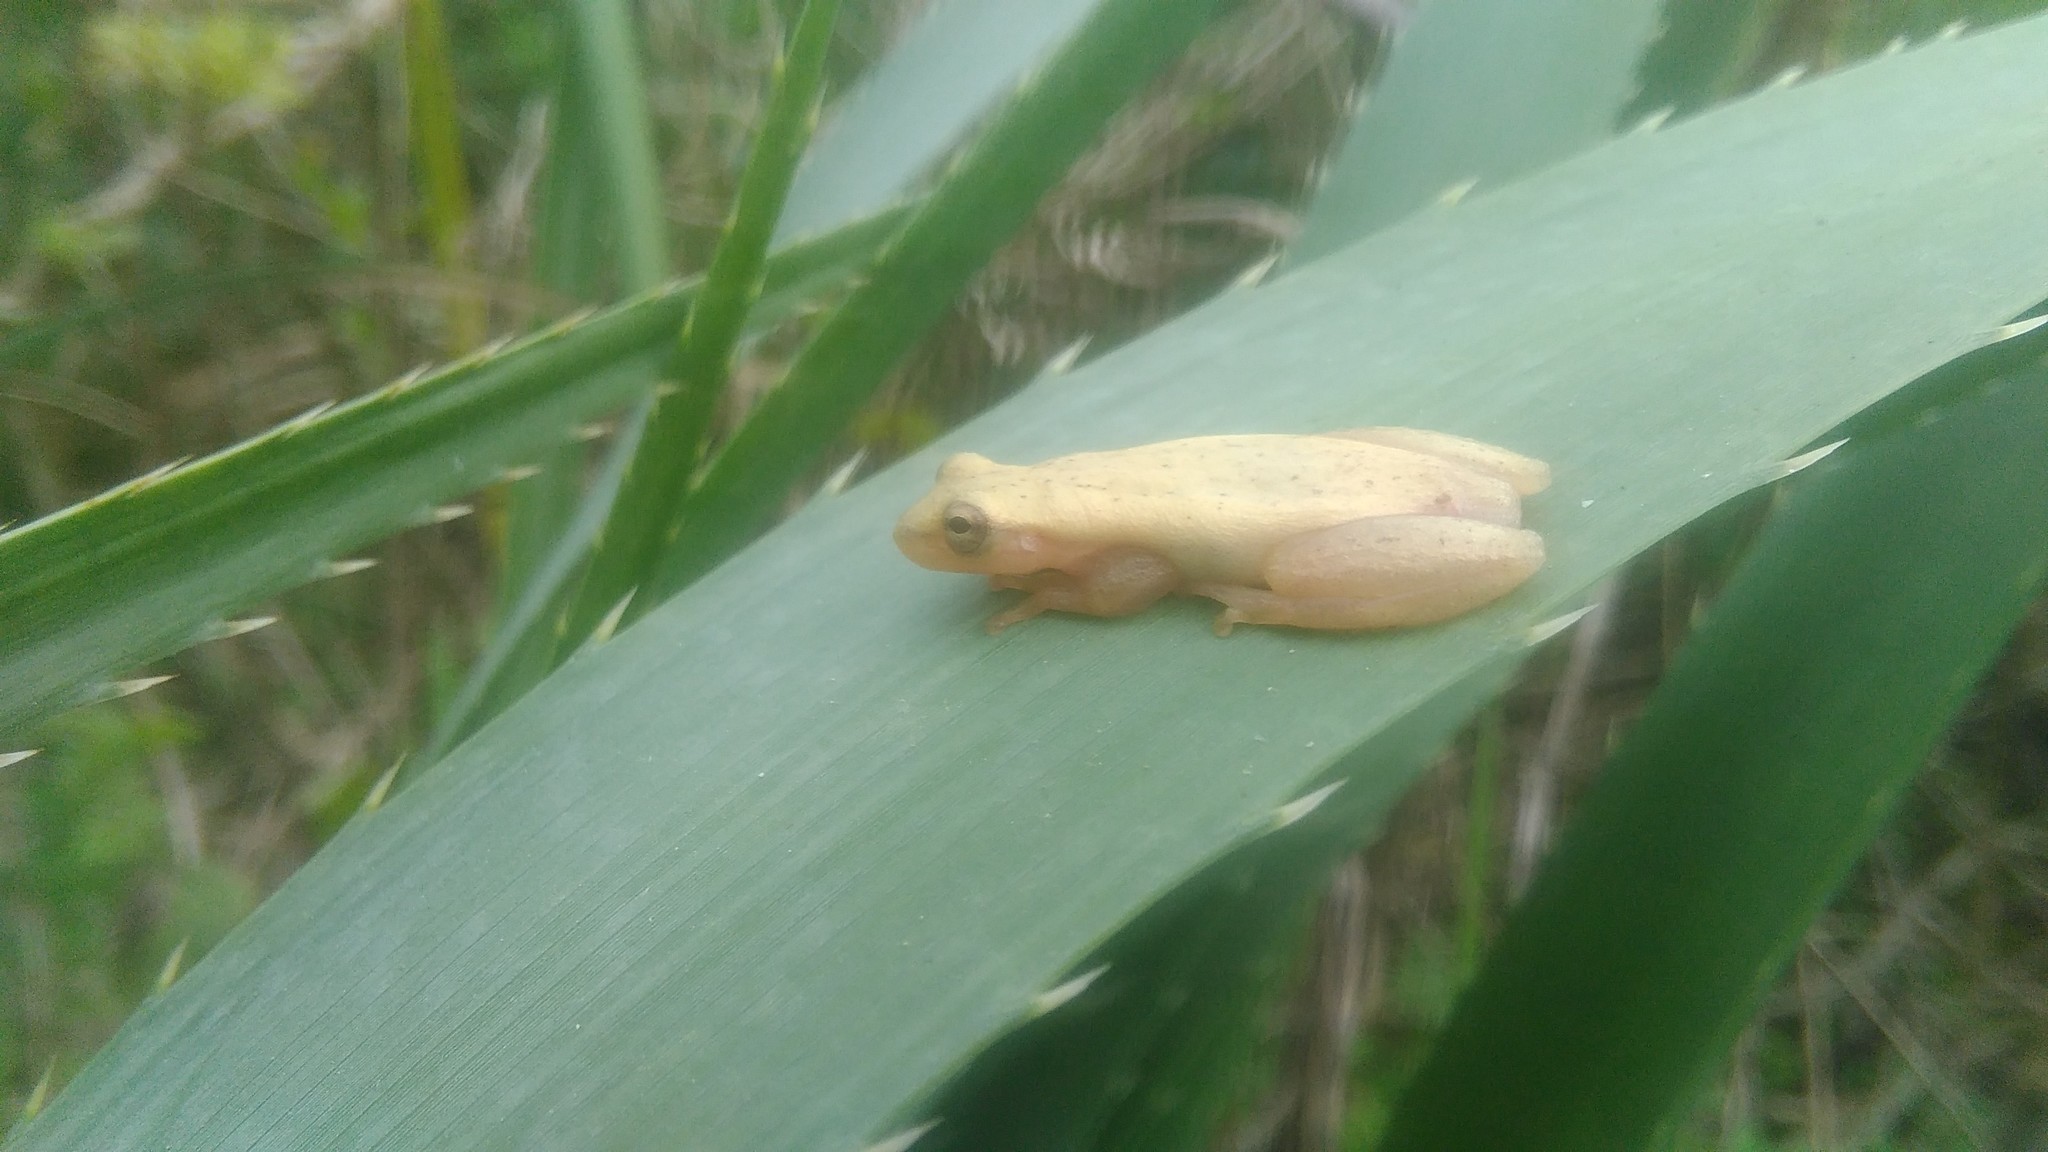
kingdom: Animalia
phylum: Chordata
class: Amphibia
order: Anura
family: Hylidae
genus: Dendropsophus
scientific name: Dendropsophus sanborni
